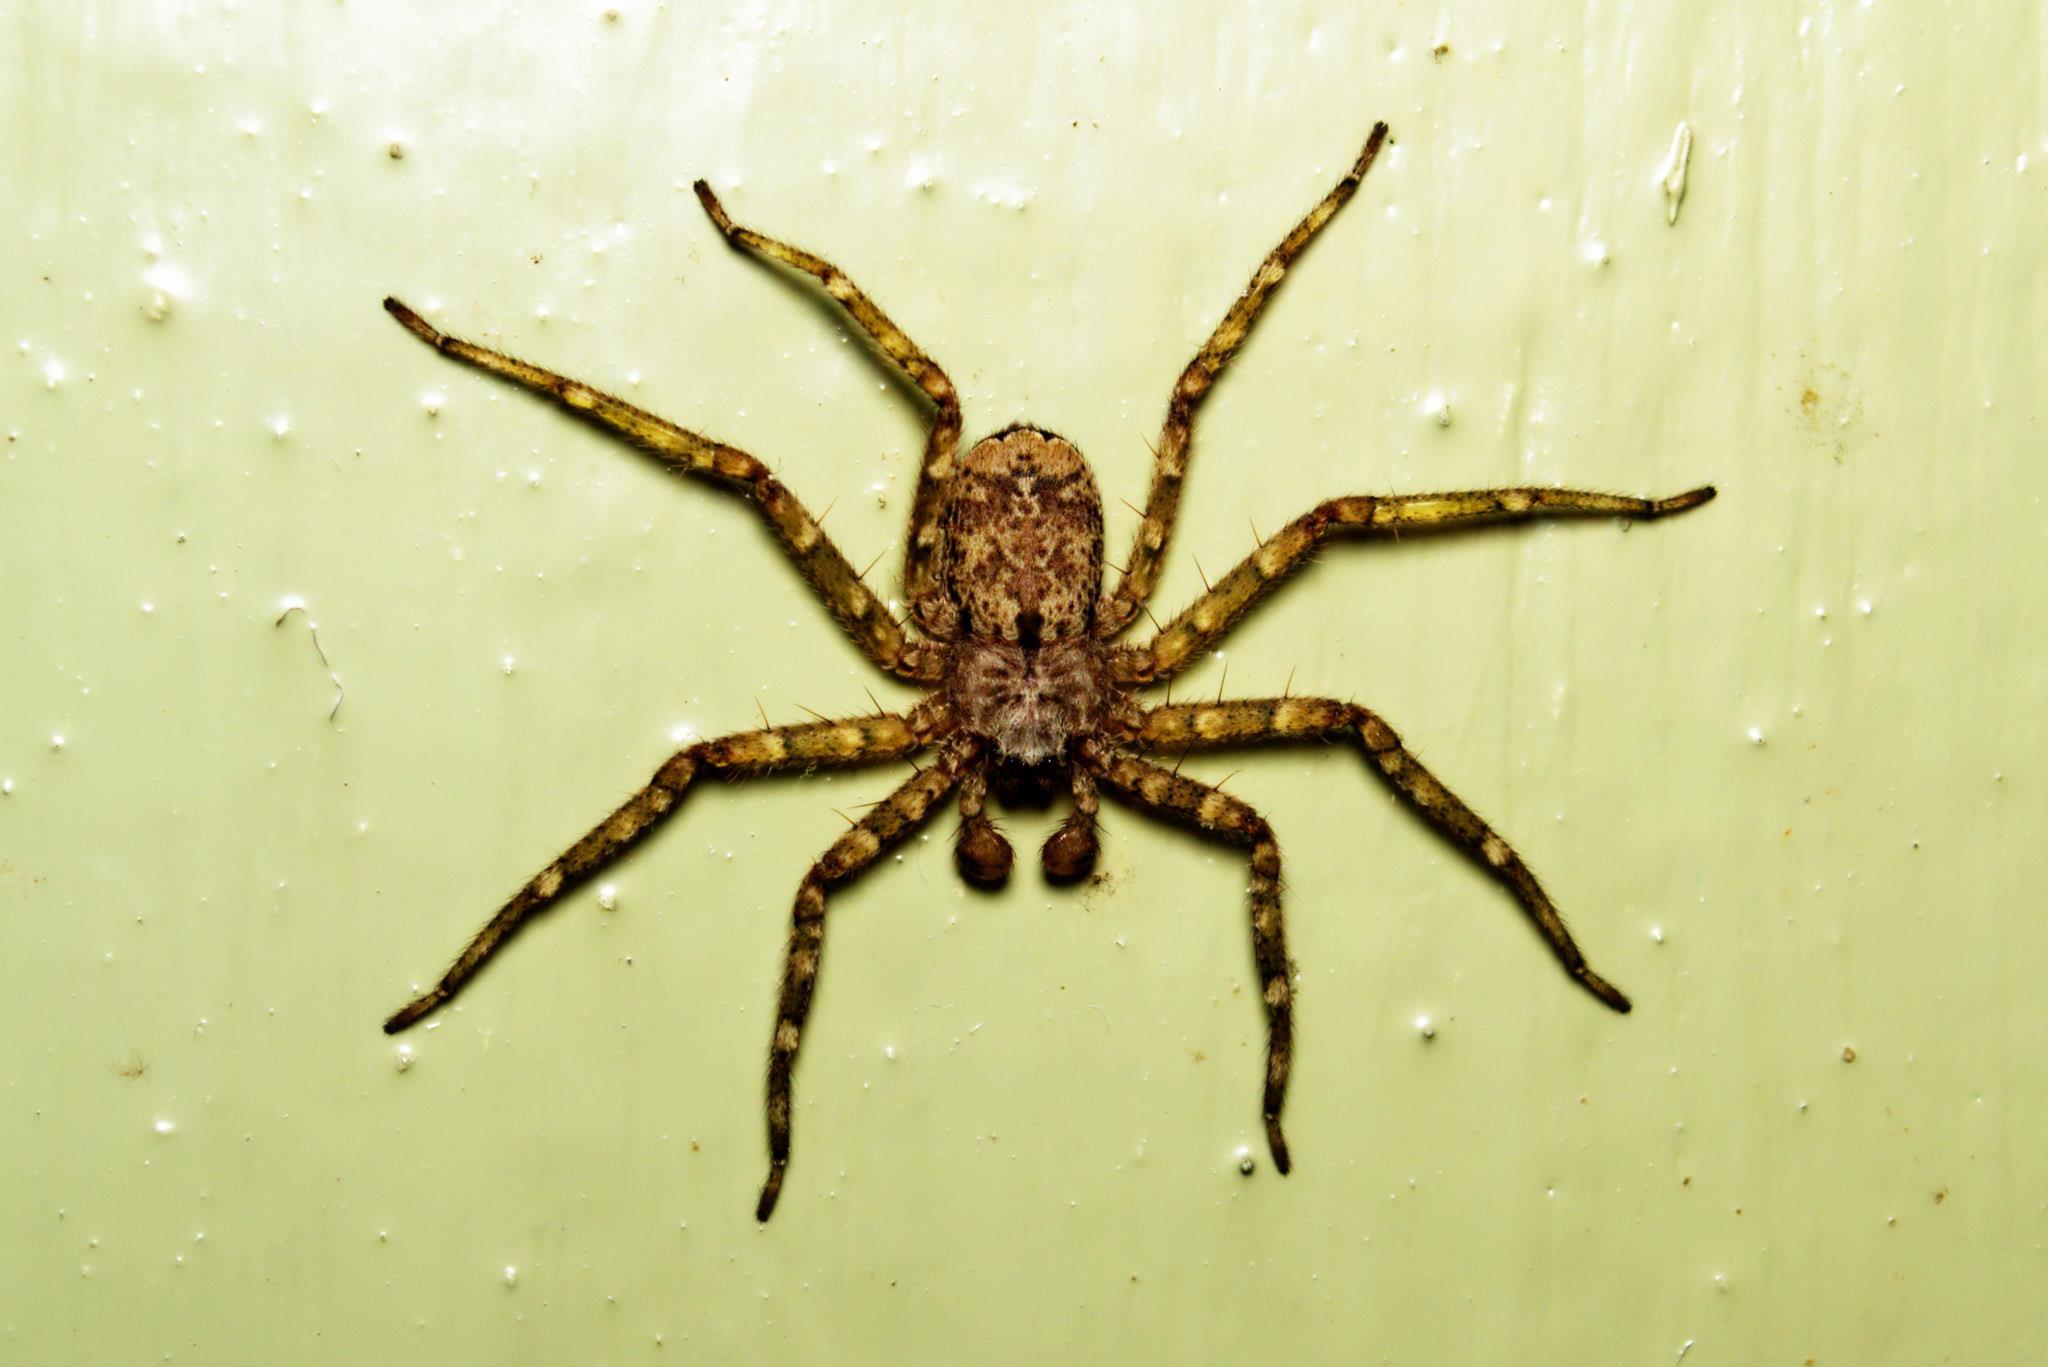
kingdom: Animalia
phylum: Arthropoda
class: Arachnida
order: Araneae
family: Selenopidae
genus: Siamspinops
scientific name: Siamspinops garoensis
